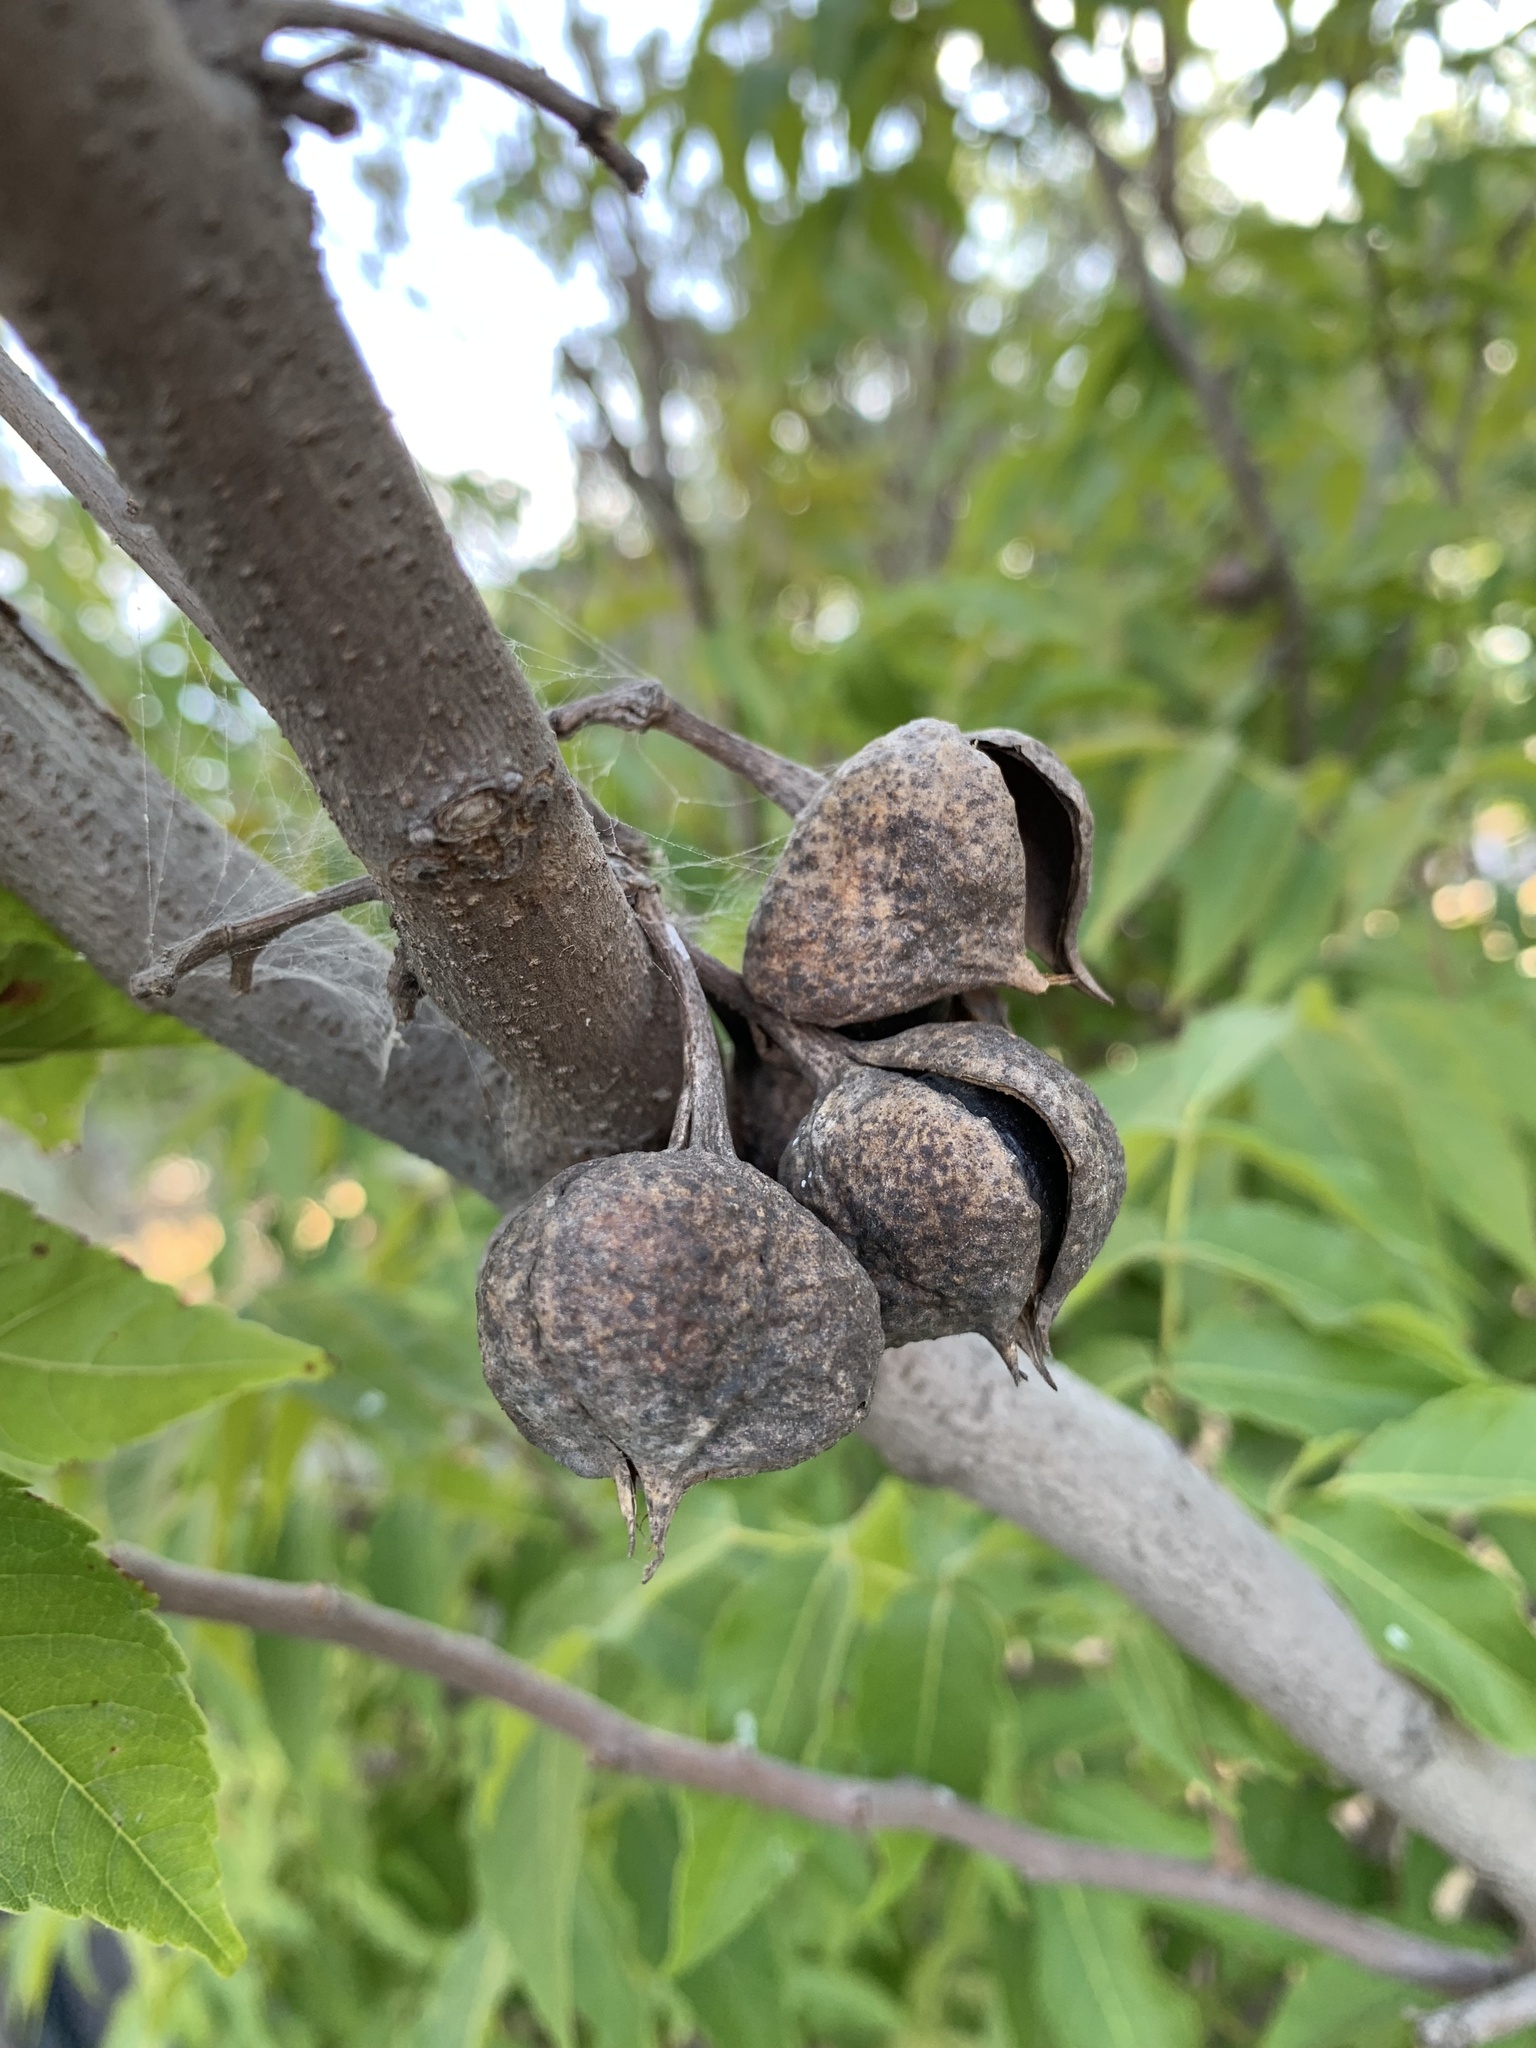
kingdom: Plantae
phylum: Tracheophyta
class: Magnoliopsida
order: Sapindales
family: Sapindaceae
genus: Ungnadia
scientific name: Ungnadia speciosa
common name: Texas-buckeye
